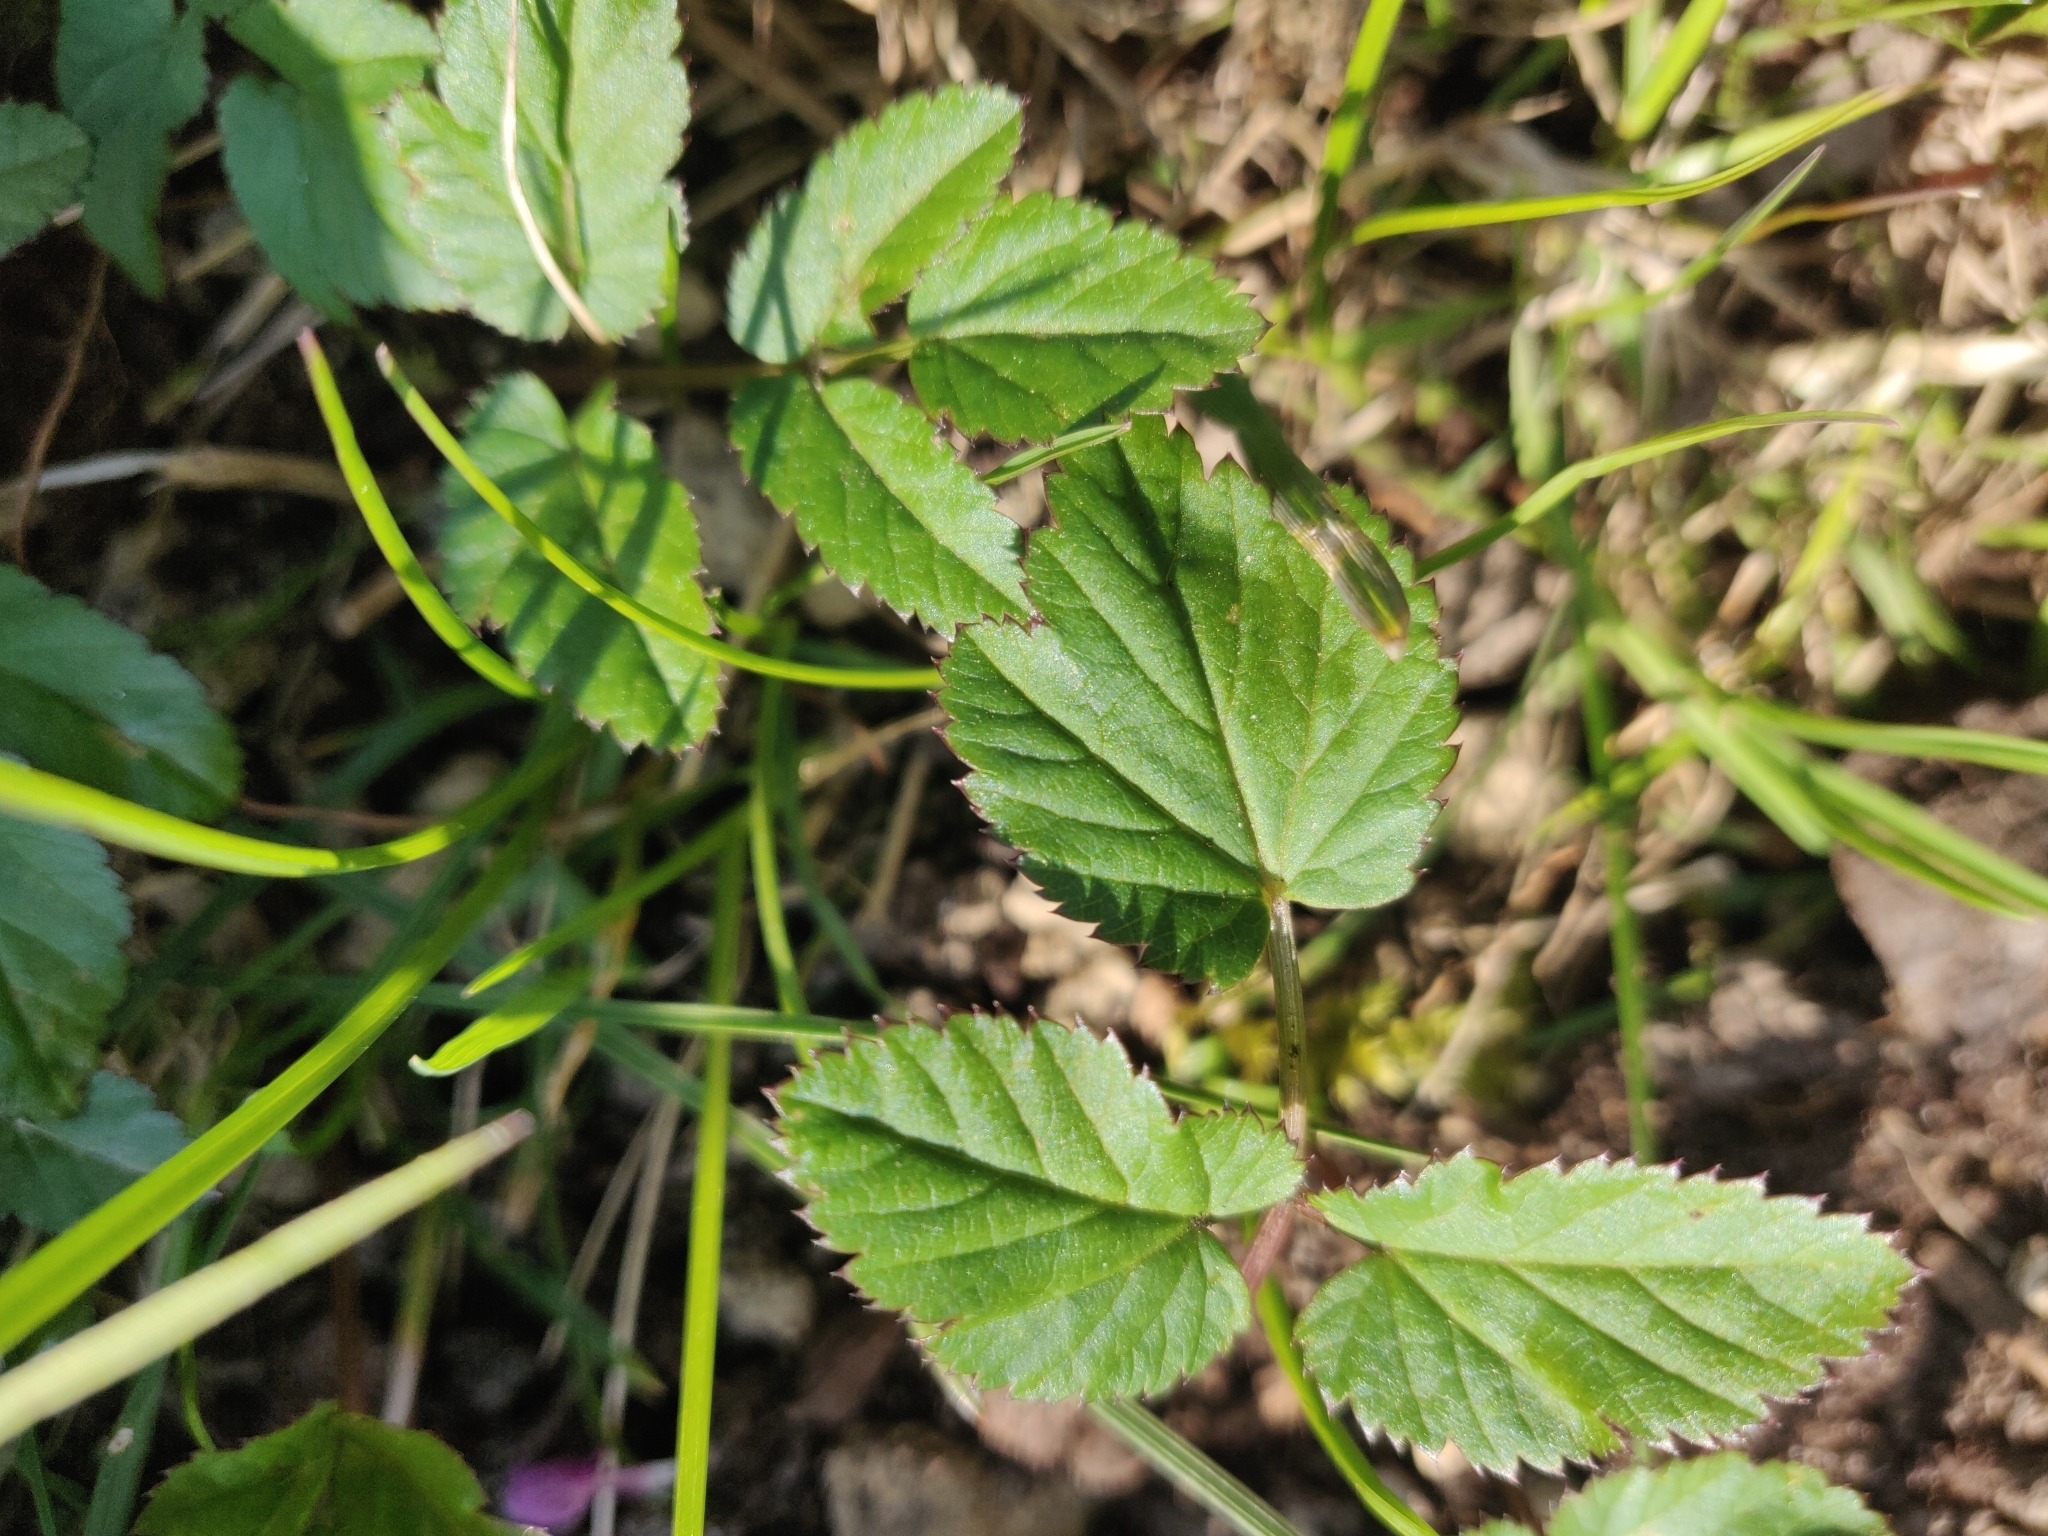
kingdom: Plantae
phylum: Tracheophyta
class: Magnoliopsida
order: Apiales
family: Apiaceae
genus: Aegopodium
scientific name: Aegopodium podagraria
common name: Ground-elder
